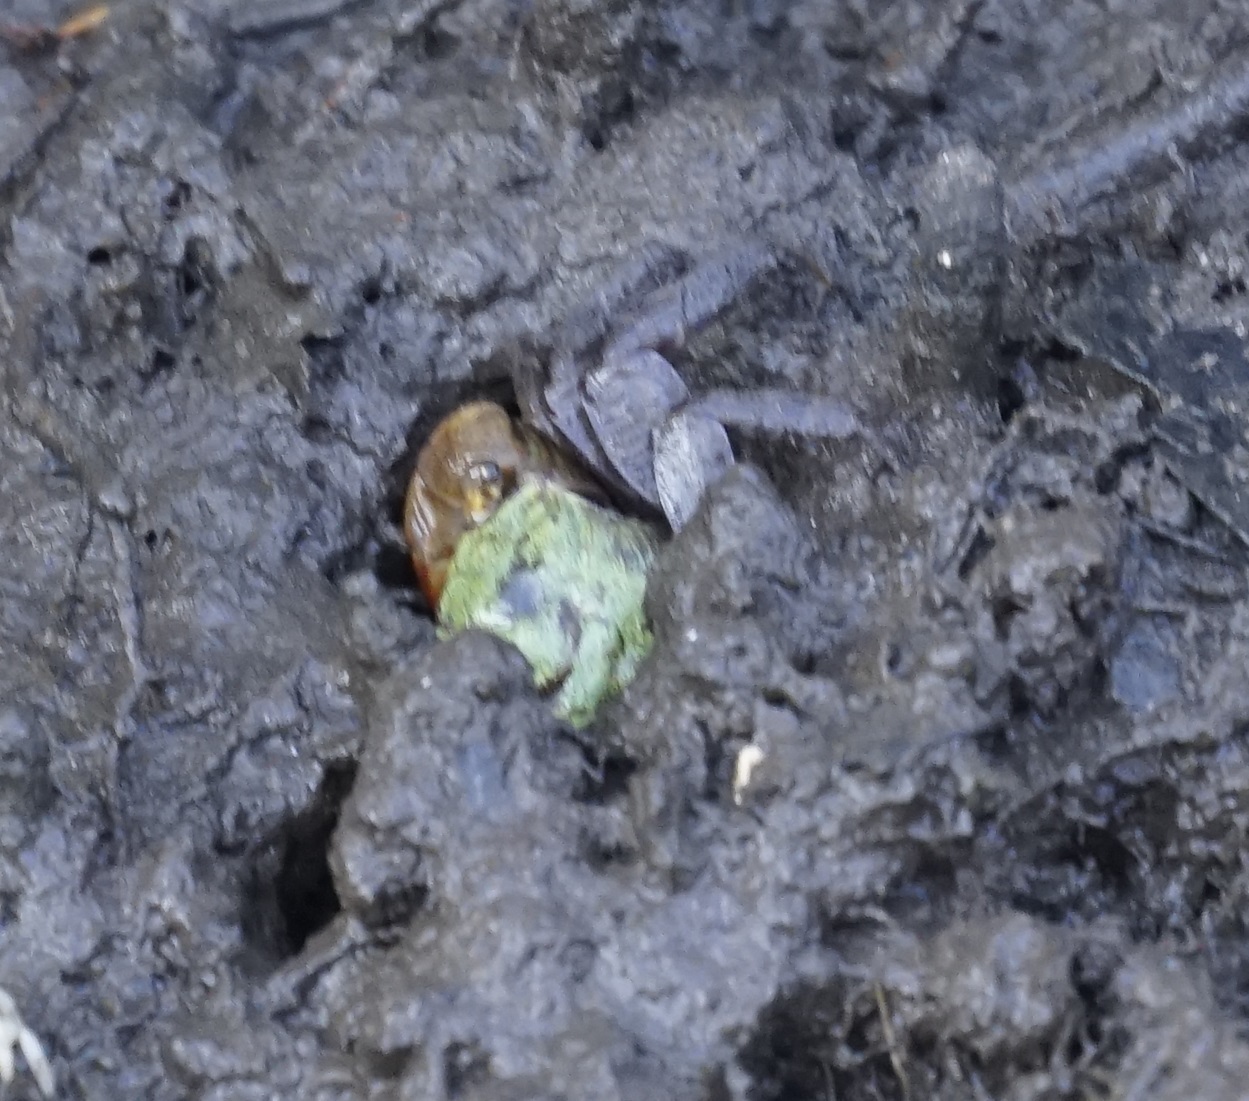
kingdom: Animalia
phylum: Arthropoda
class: Malacostraca
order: Decapoda
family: Sesarmidae
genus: Parasesarma
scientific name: Parasesarma erythodactylum
